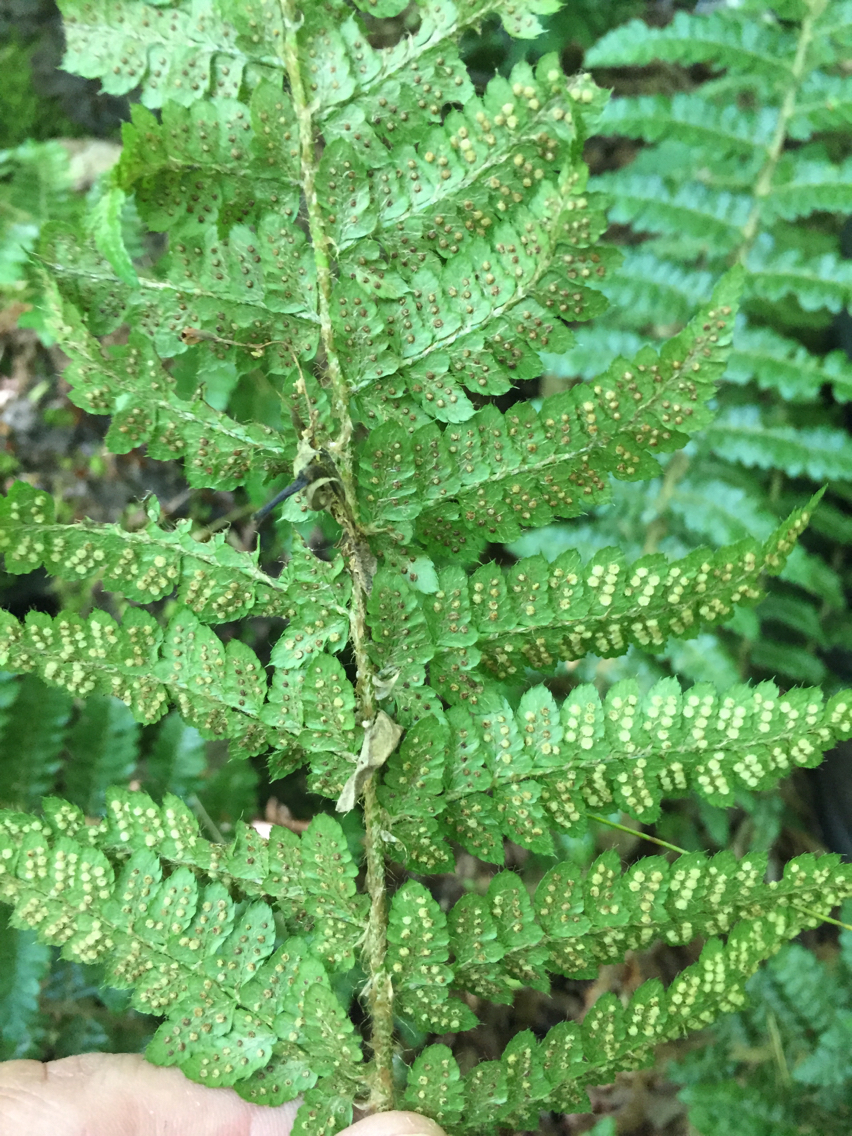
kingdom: Plantae
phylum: Tracheophyta
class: Polypodiopsida
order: Polypodiales
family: Dryopteridaceae
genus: Polystichum
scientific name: Polystichum braunii
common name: Braun's holly fern
